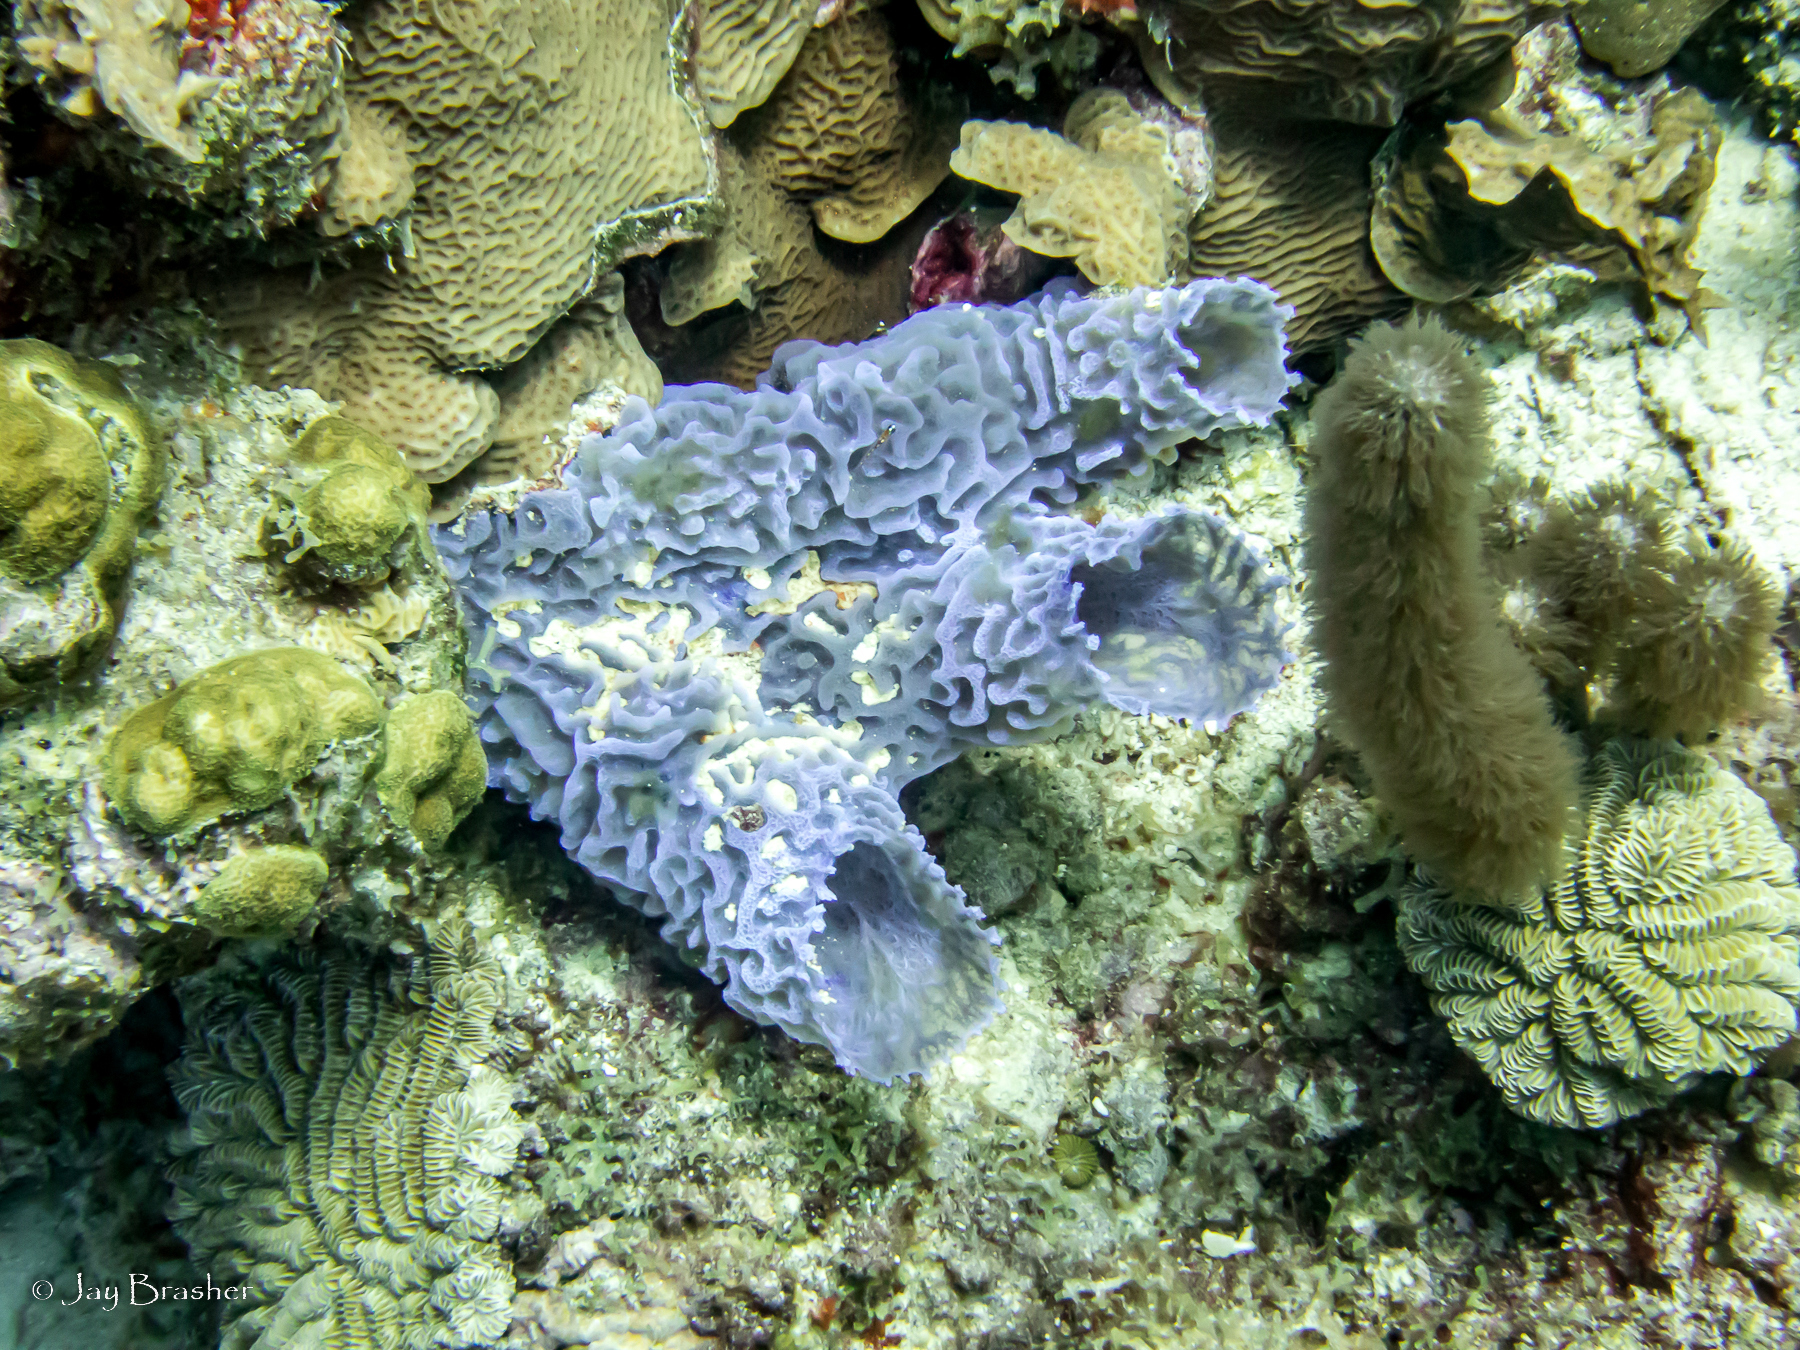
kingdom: Animalia
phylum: Cnidaria
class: Anthozoa
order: Scleractinia
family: Poritidae
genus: Porites
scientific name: Porites astreoides
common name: Mustard hill coral
